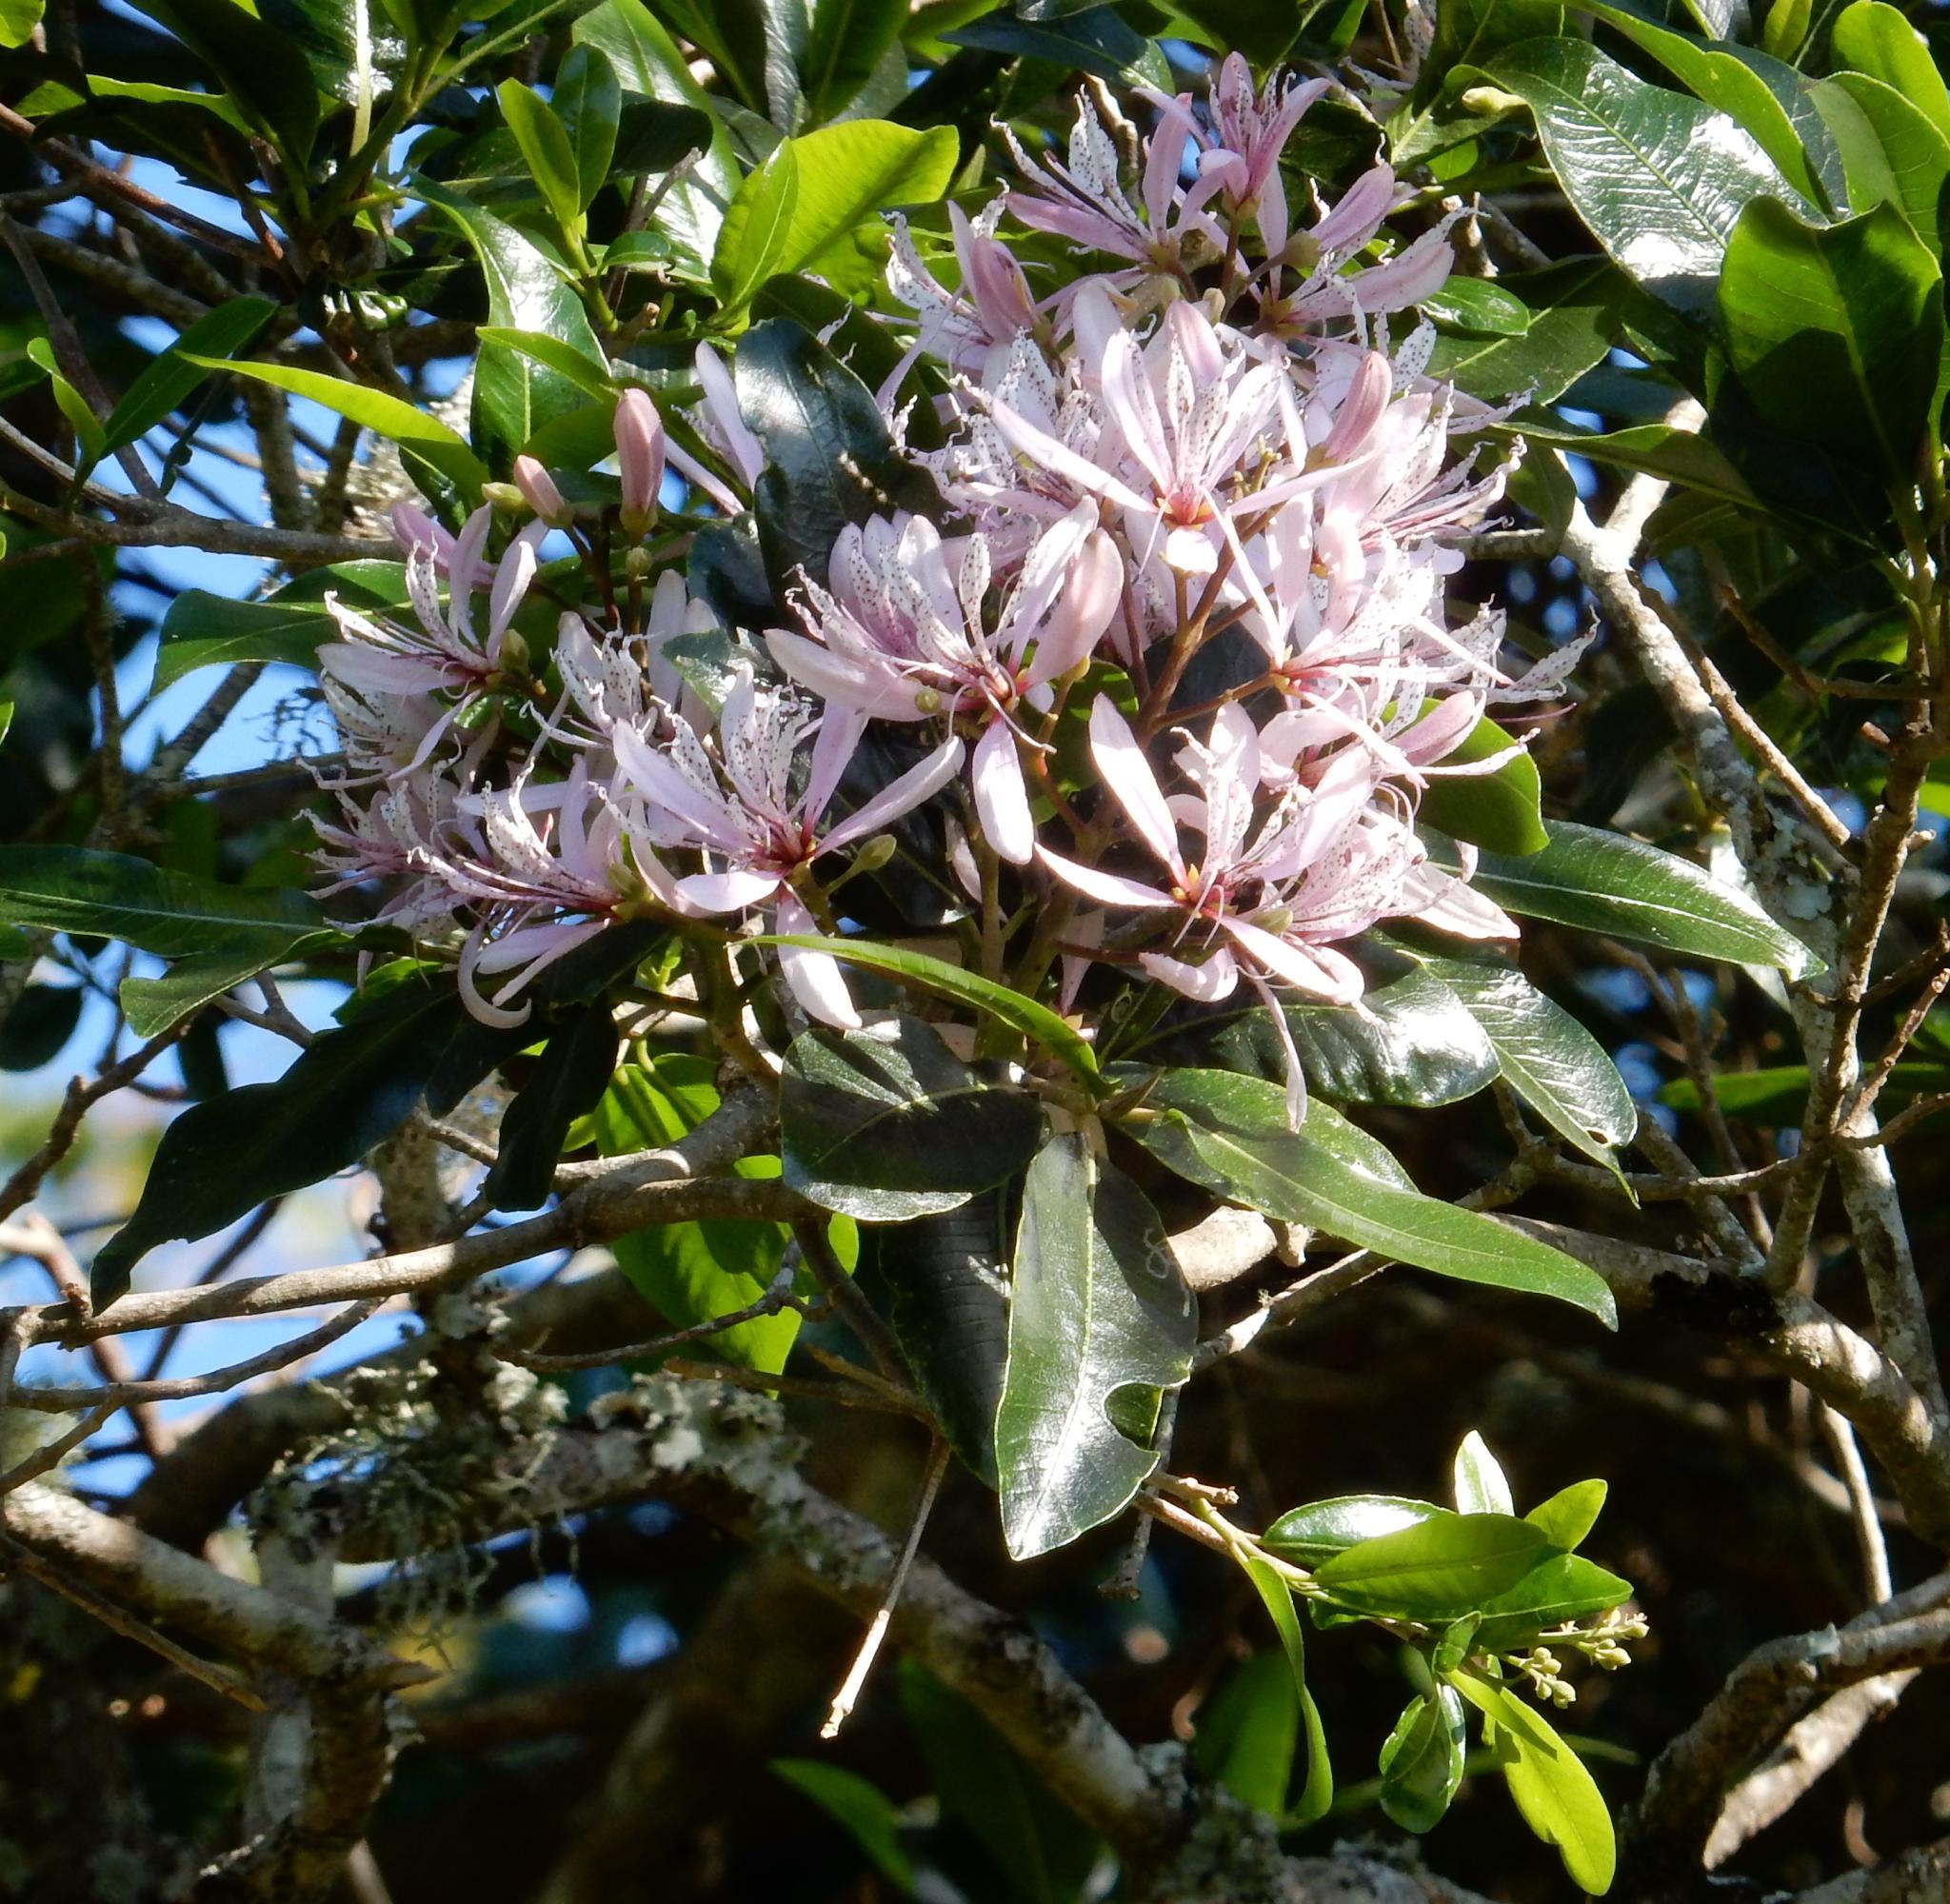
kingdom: Plantae
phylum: Tracheophyta
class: Magnoliopsida
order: Sapindales
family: Rutaceae
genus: Calodendrum
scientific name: Calodendrum capense
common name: Cape chestnut
